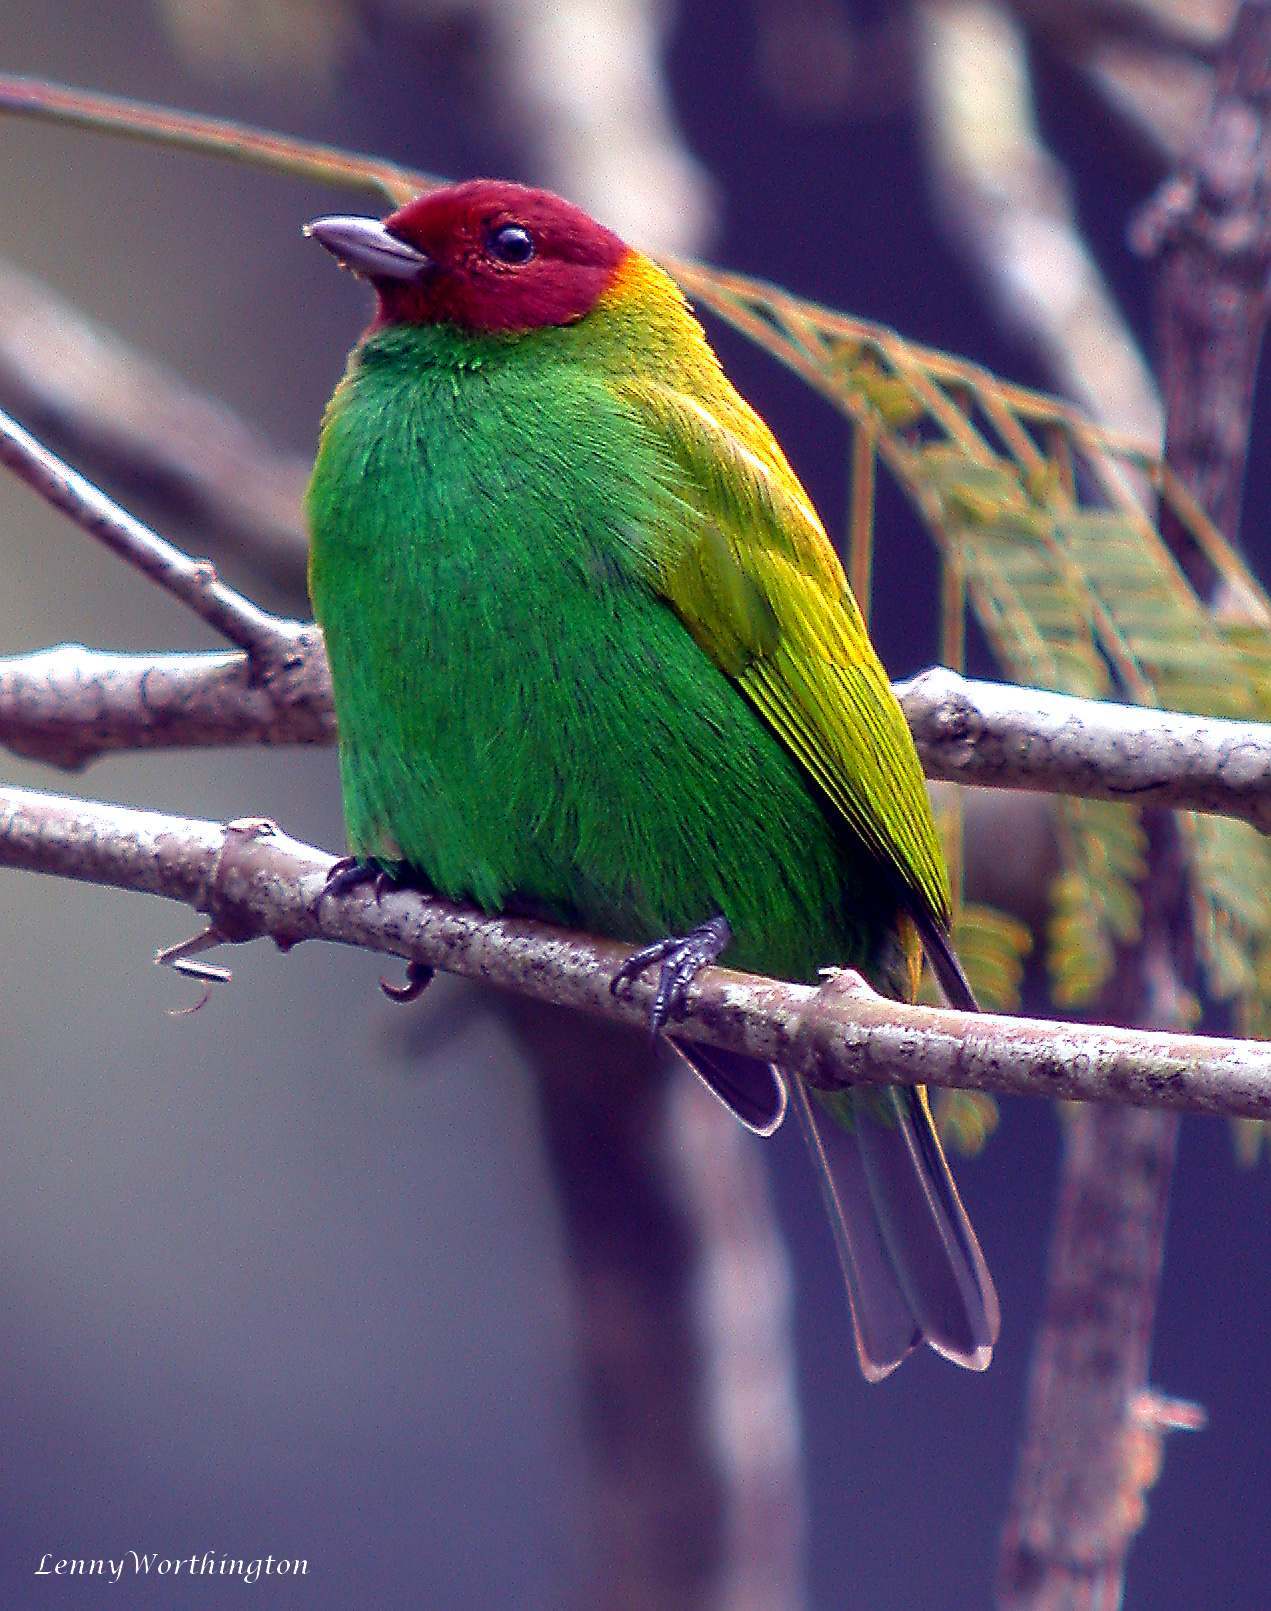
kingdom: Animalia
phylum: Chordata
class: Aves
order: Passeriformes
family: Thraupidae
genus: Tangara
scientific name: Tangara gyrola
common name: Bay-headed tanager
